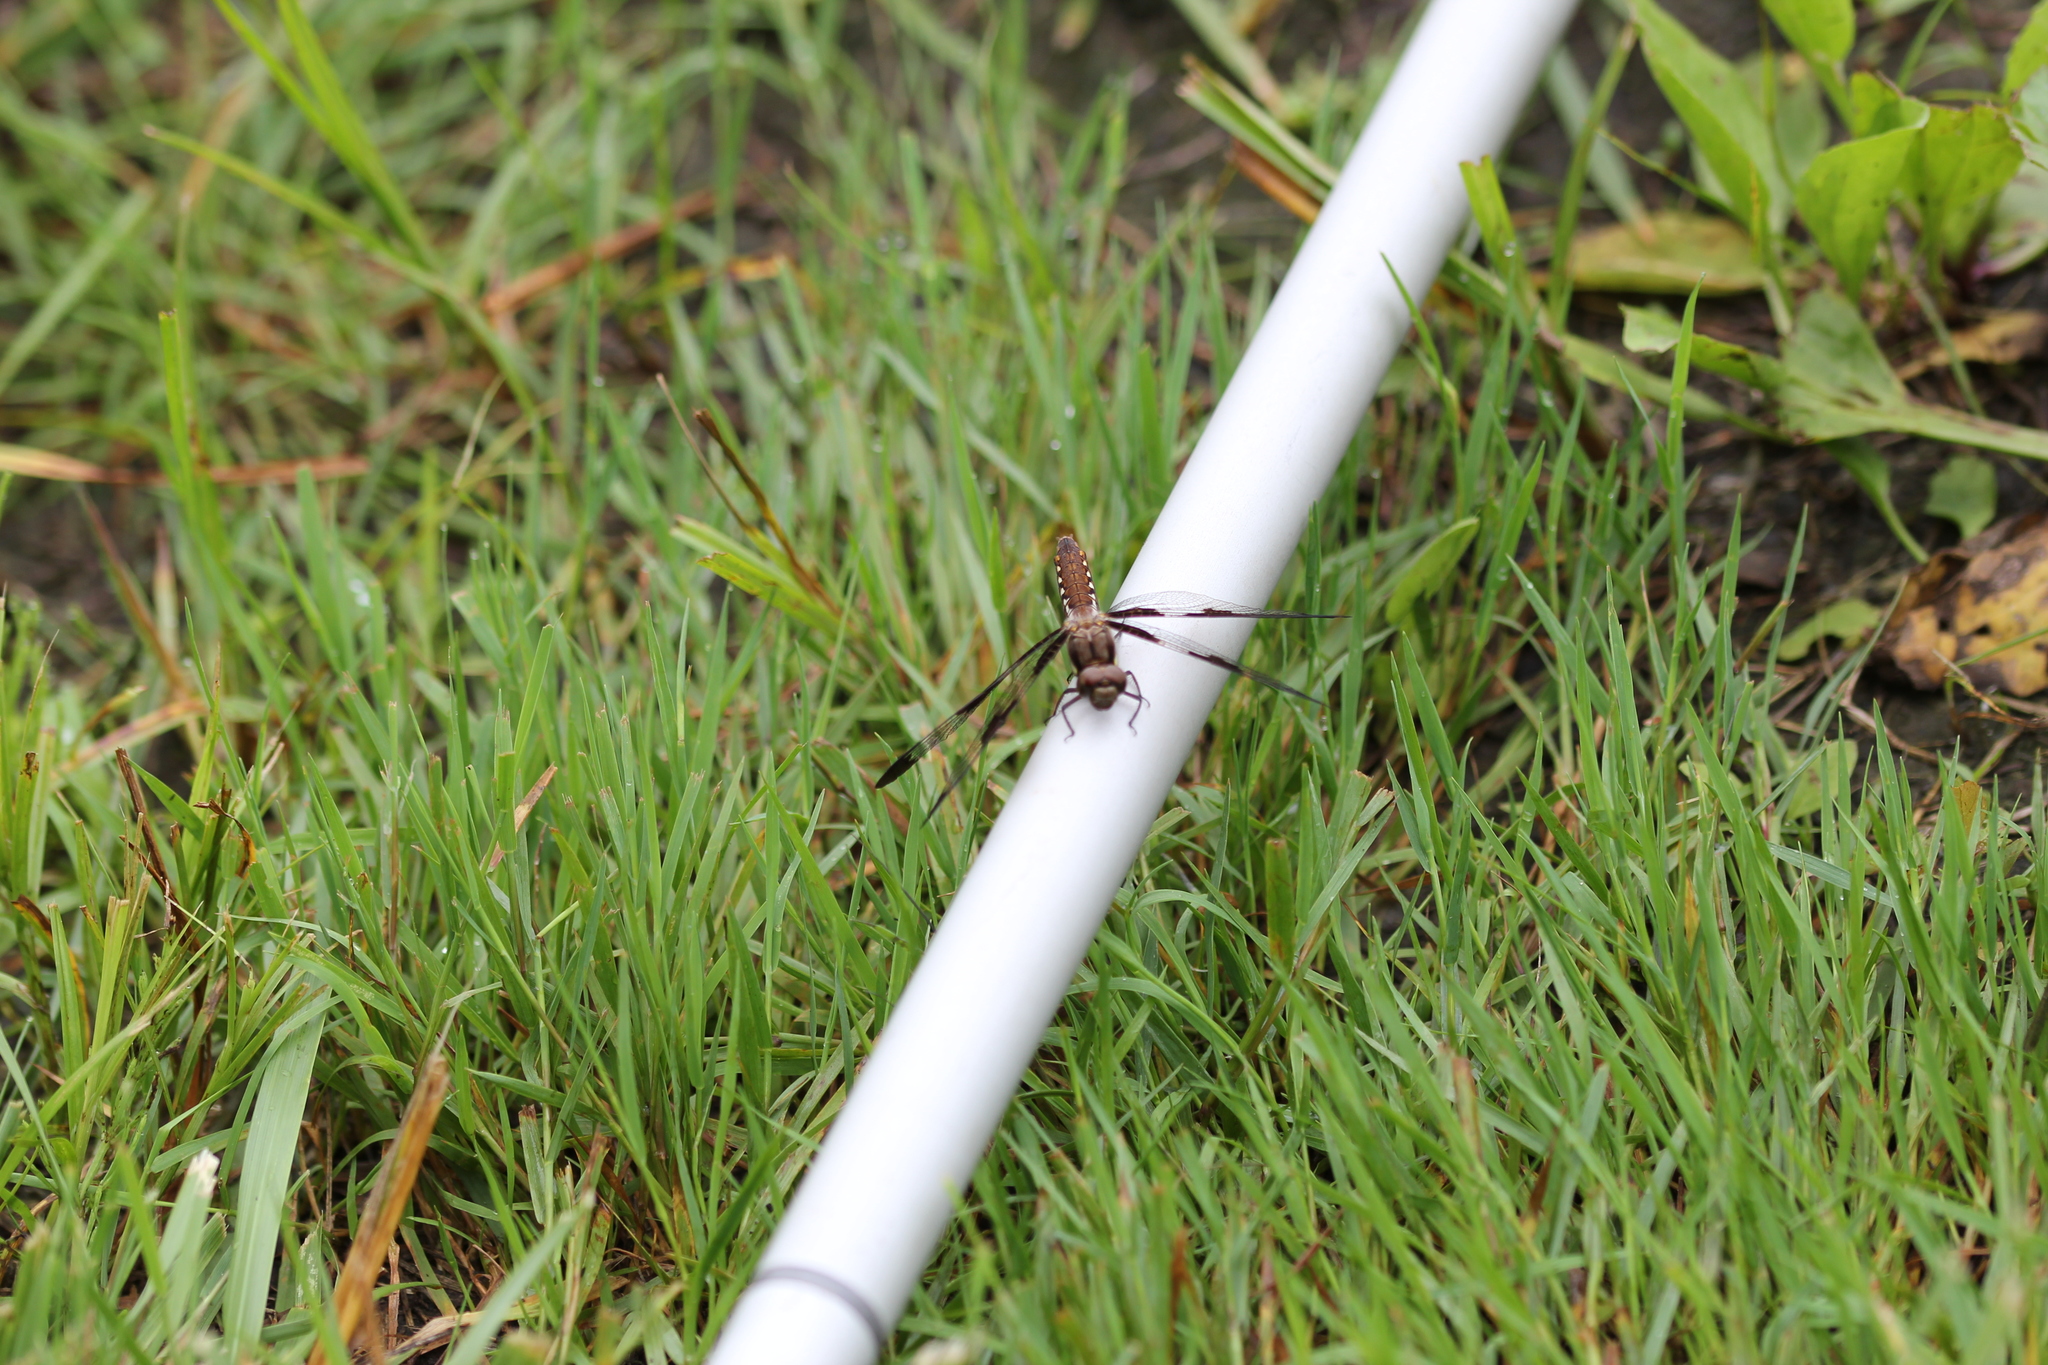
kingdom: Animalia
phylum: Arthropoda
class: Insecta
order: Odonata
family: Libellulidae
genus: Plathemis
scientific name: Plathemis lydia
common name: Common whitetail
